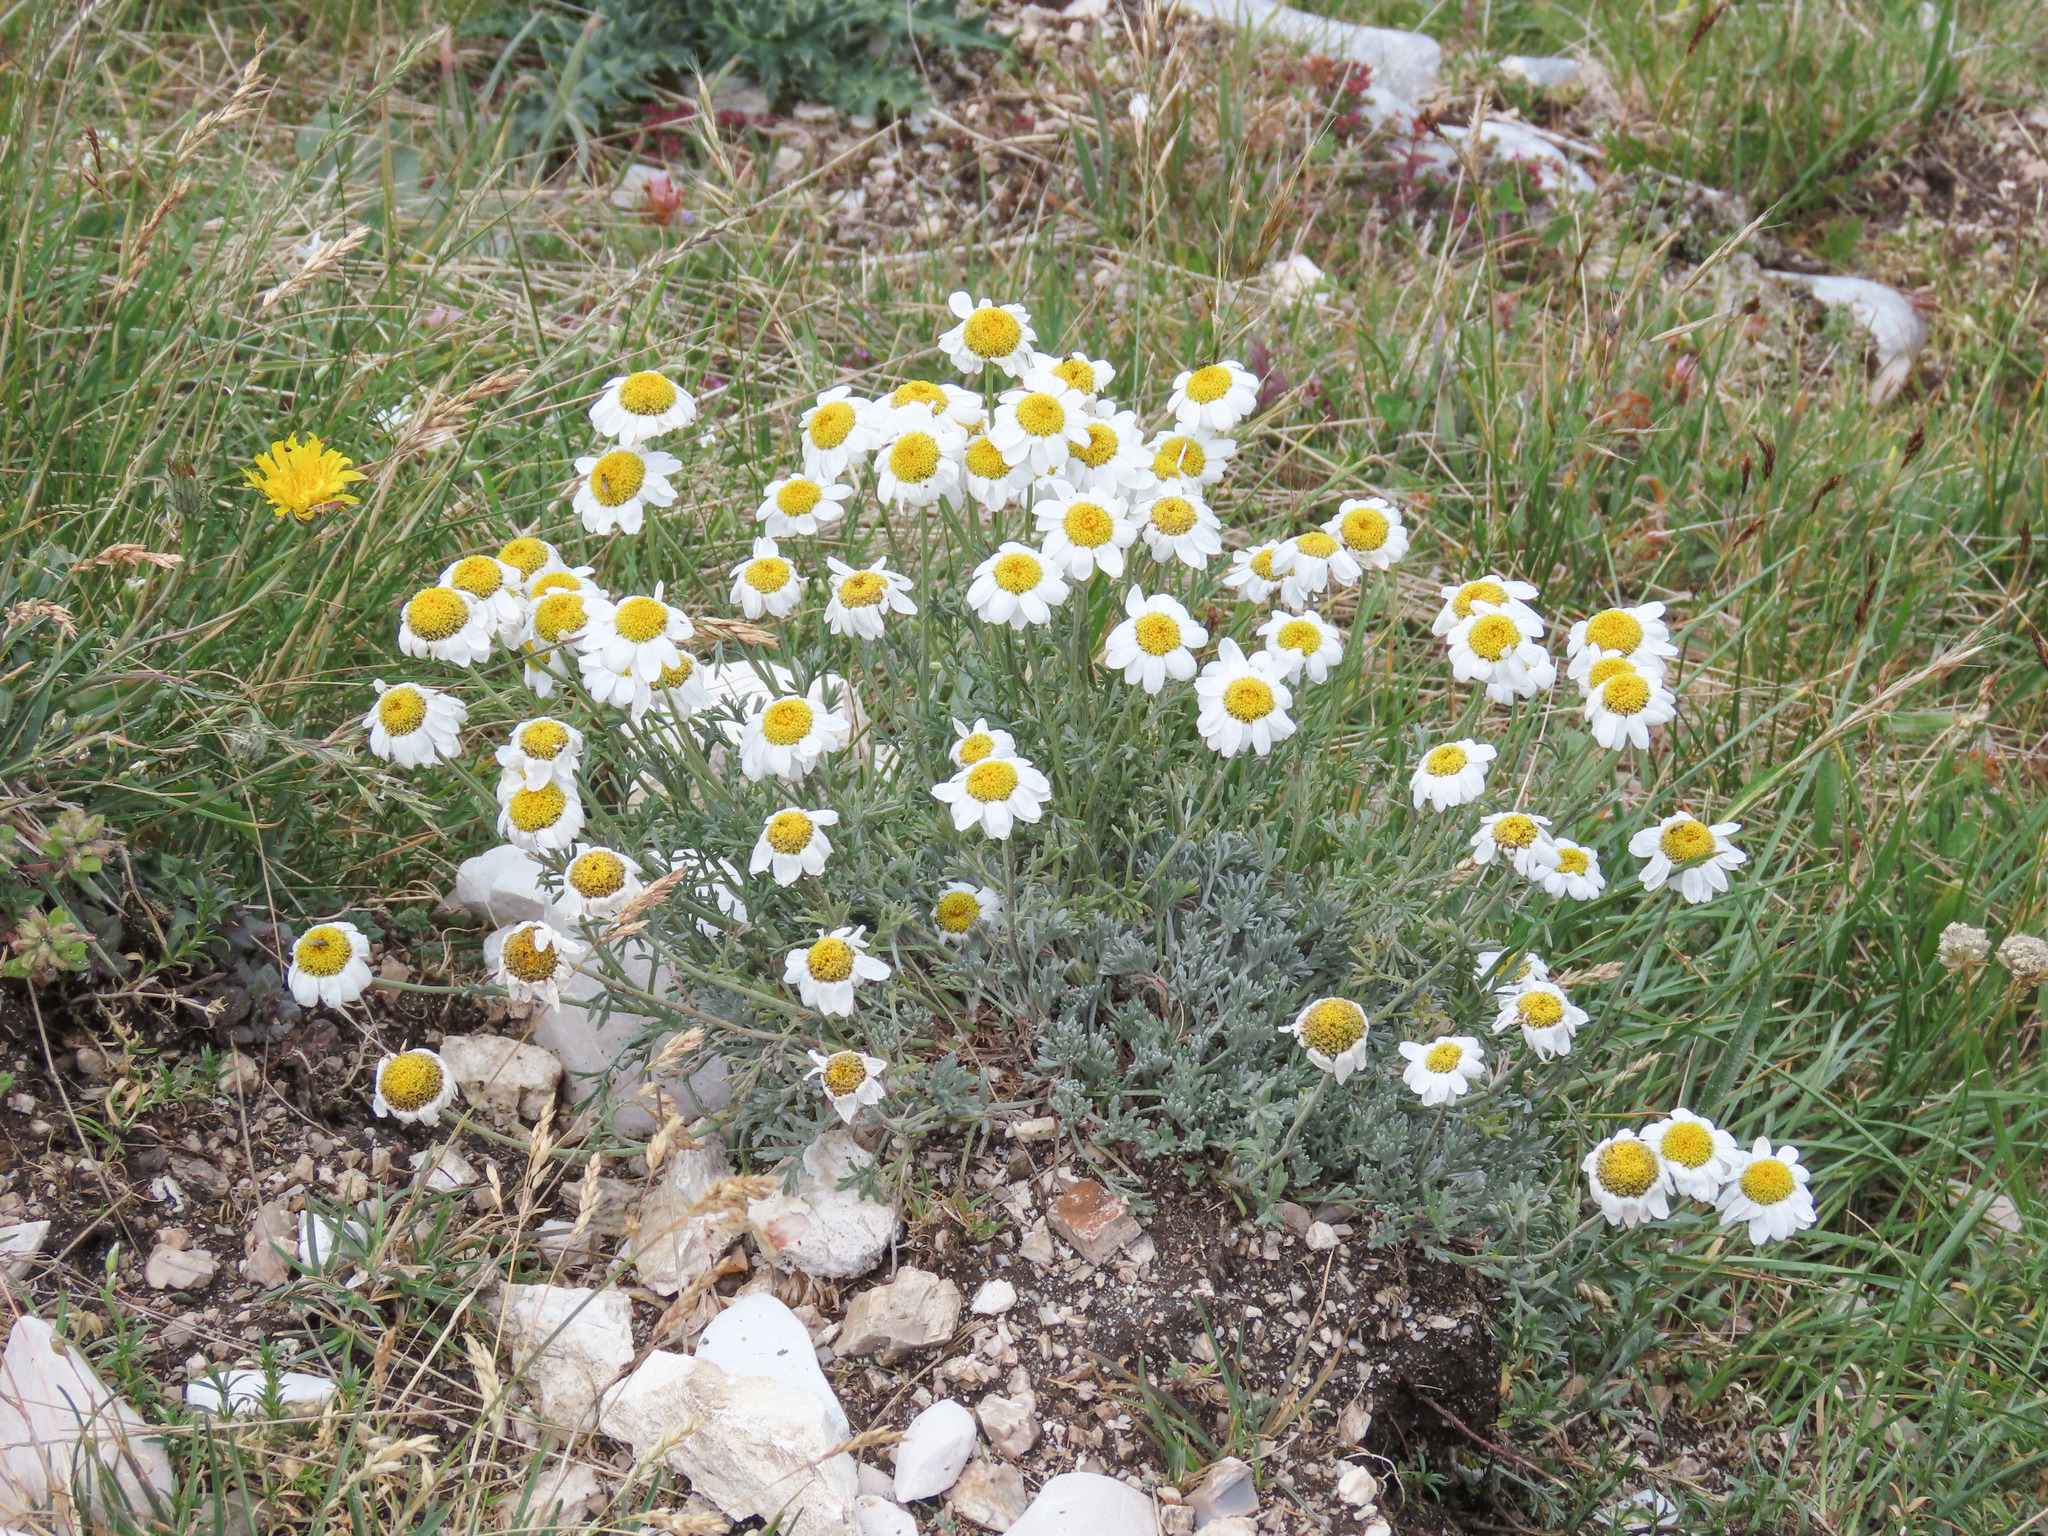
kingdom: Plantae
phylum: Tracheophyta
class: Magnoliopsida
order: Asterales
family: Asteraceae
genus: Anthemis
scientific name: Anthemis cretica
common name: Mountain dog-daisy
